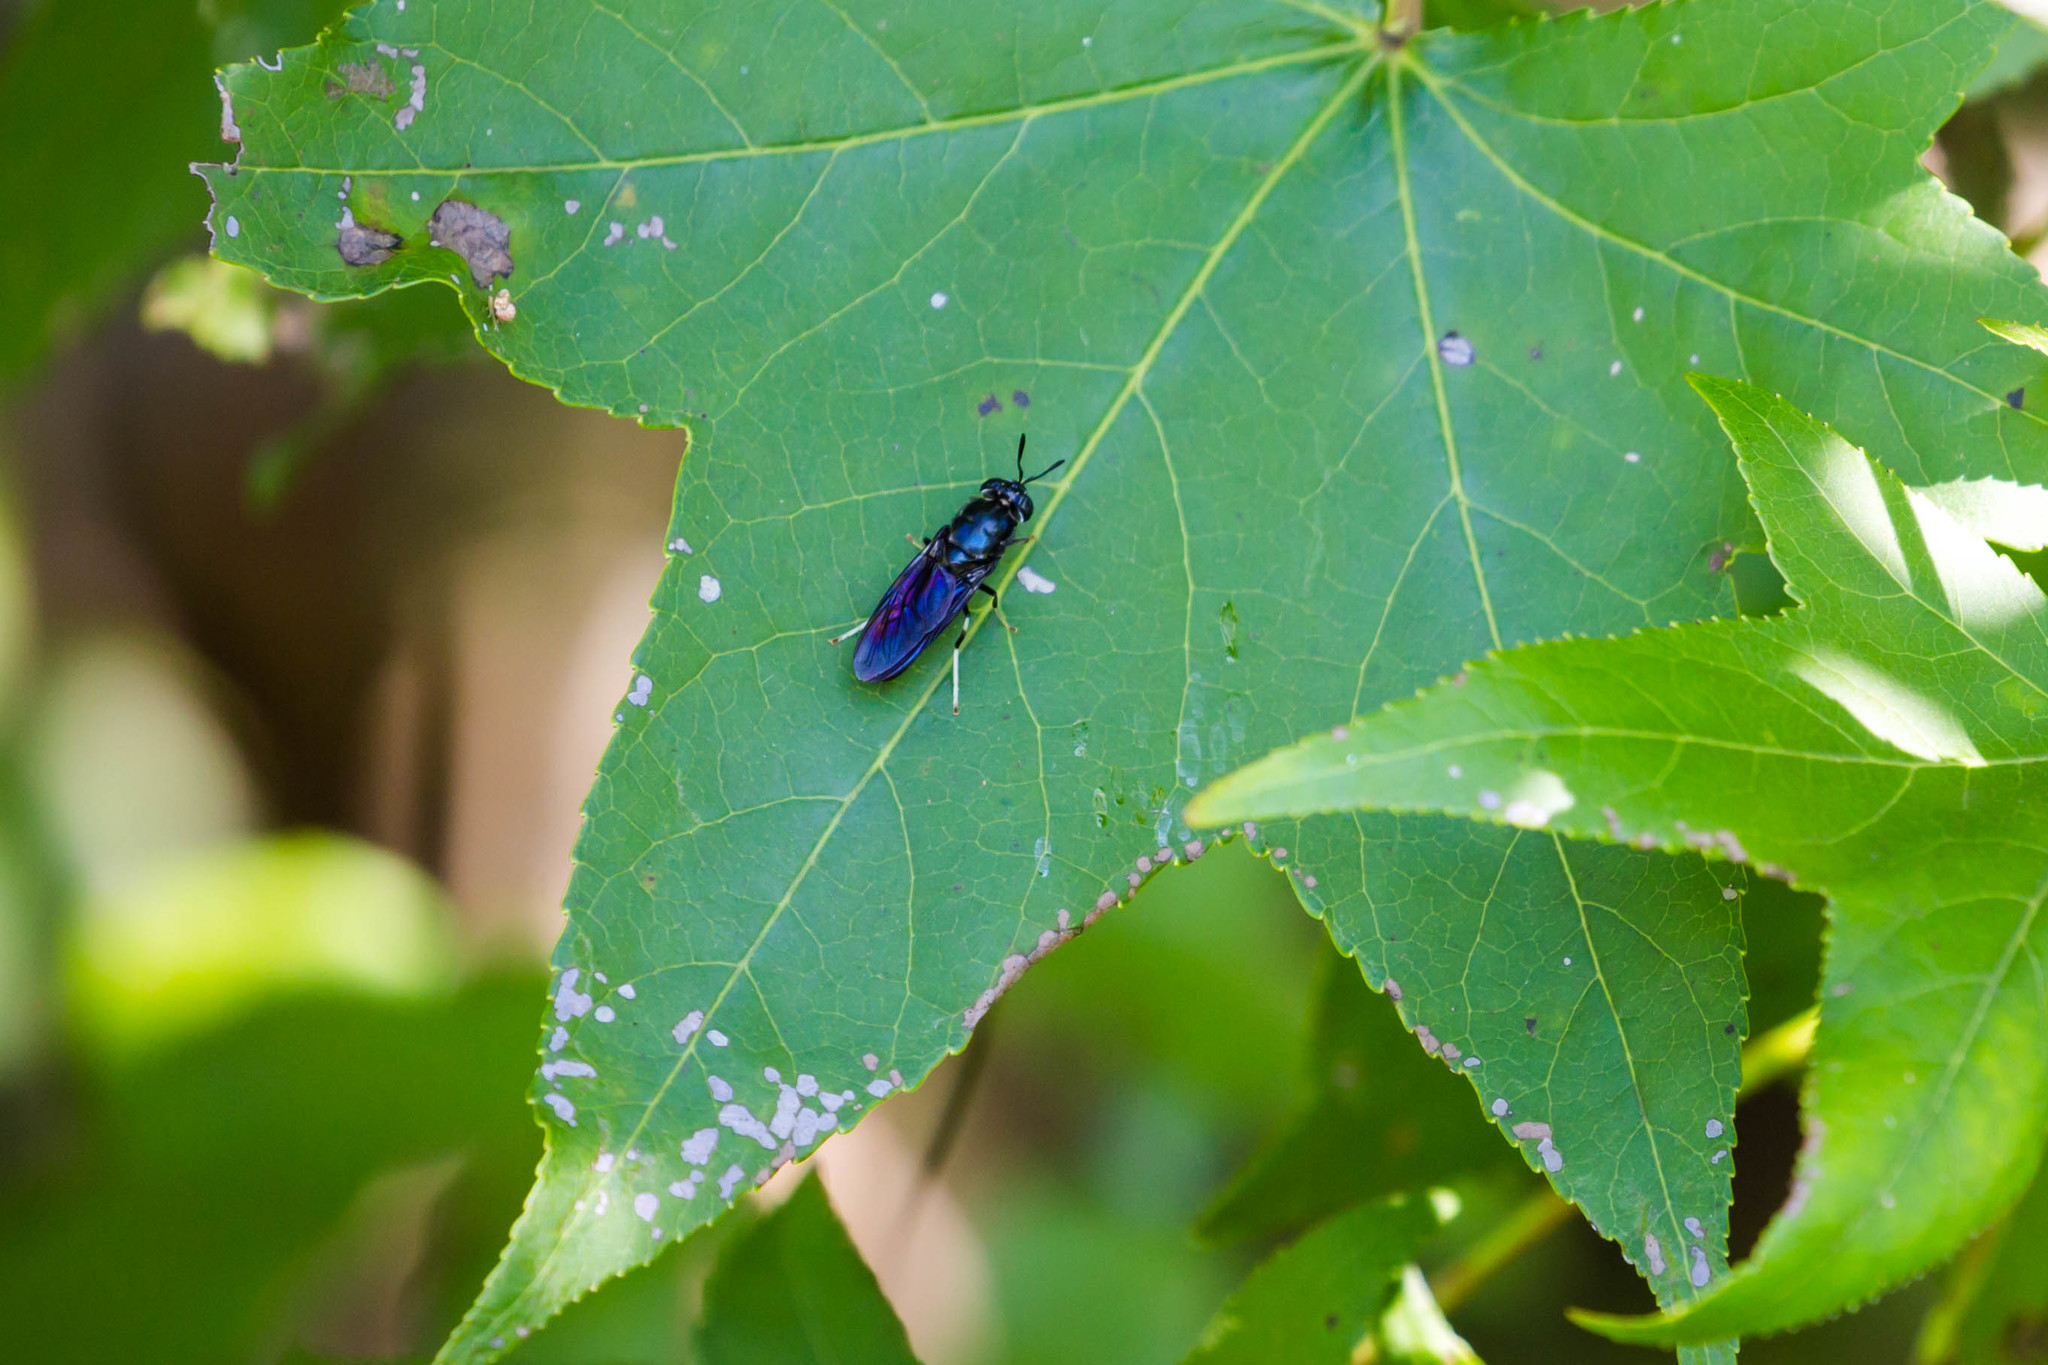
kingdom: Animalia
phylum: Arthropoda
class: Insecta
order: Diptera
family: Stratiomyidae
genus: Hermetia
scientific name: Hermetia illucens
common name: Black soldier fly
